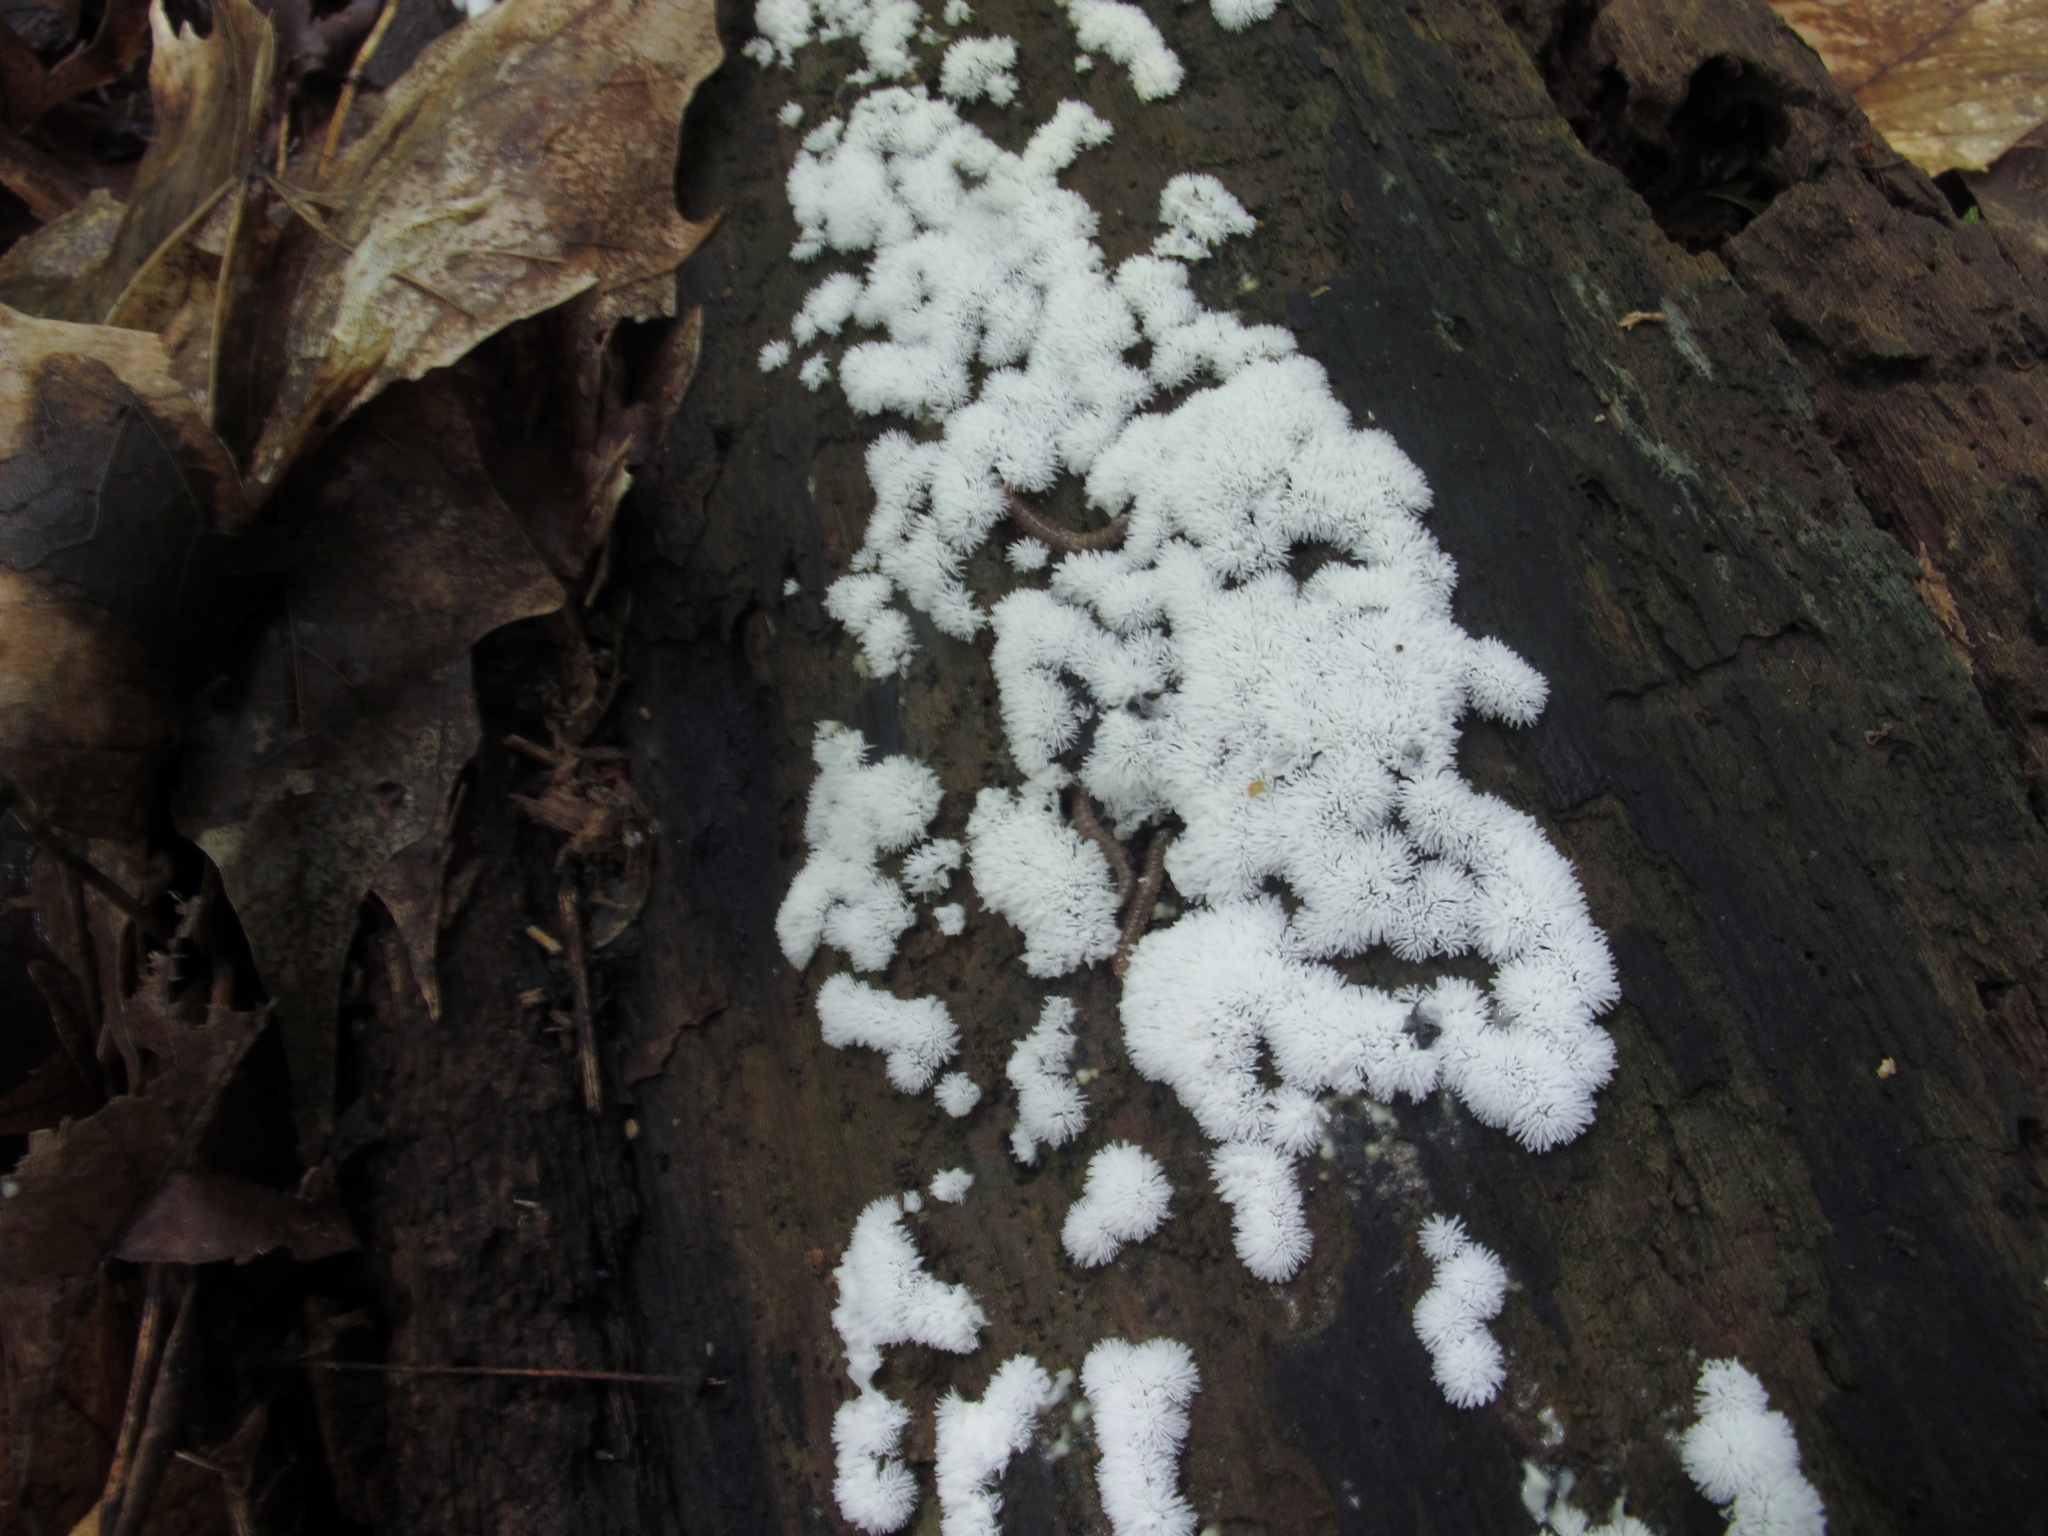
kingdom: Protozoa
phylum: Mycetozoa
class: Protosteliomycetes
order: Ceratiomyxales
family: Ceratiomyxaceae
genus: Ceratiomyxa
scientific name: Ceratiomyxa fruticulosa
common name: Honeycomb coral slime mold
